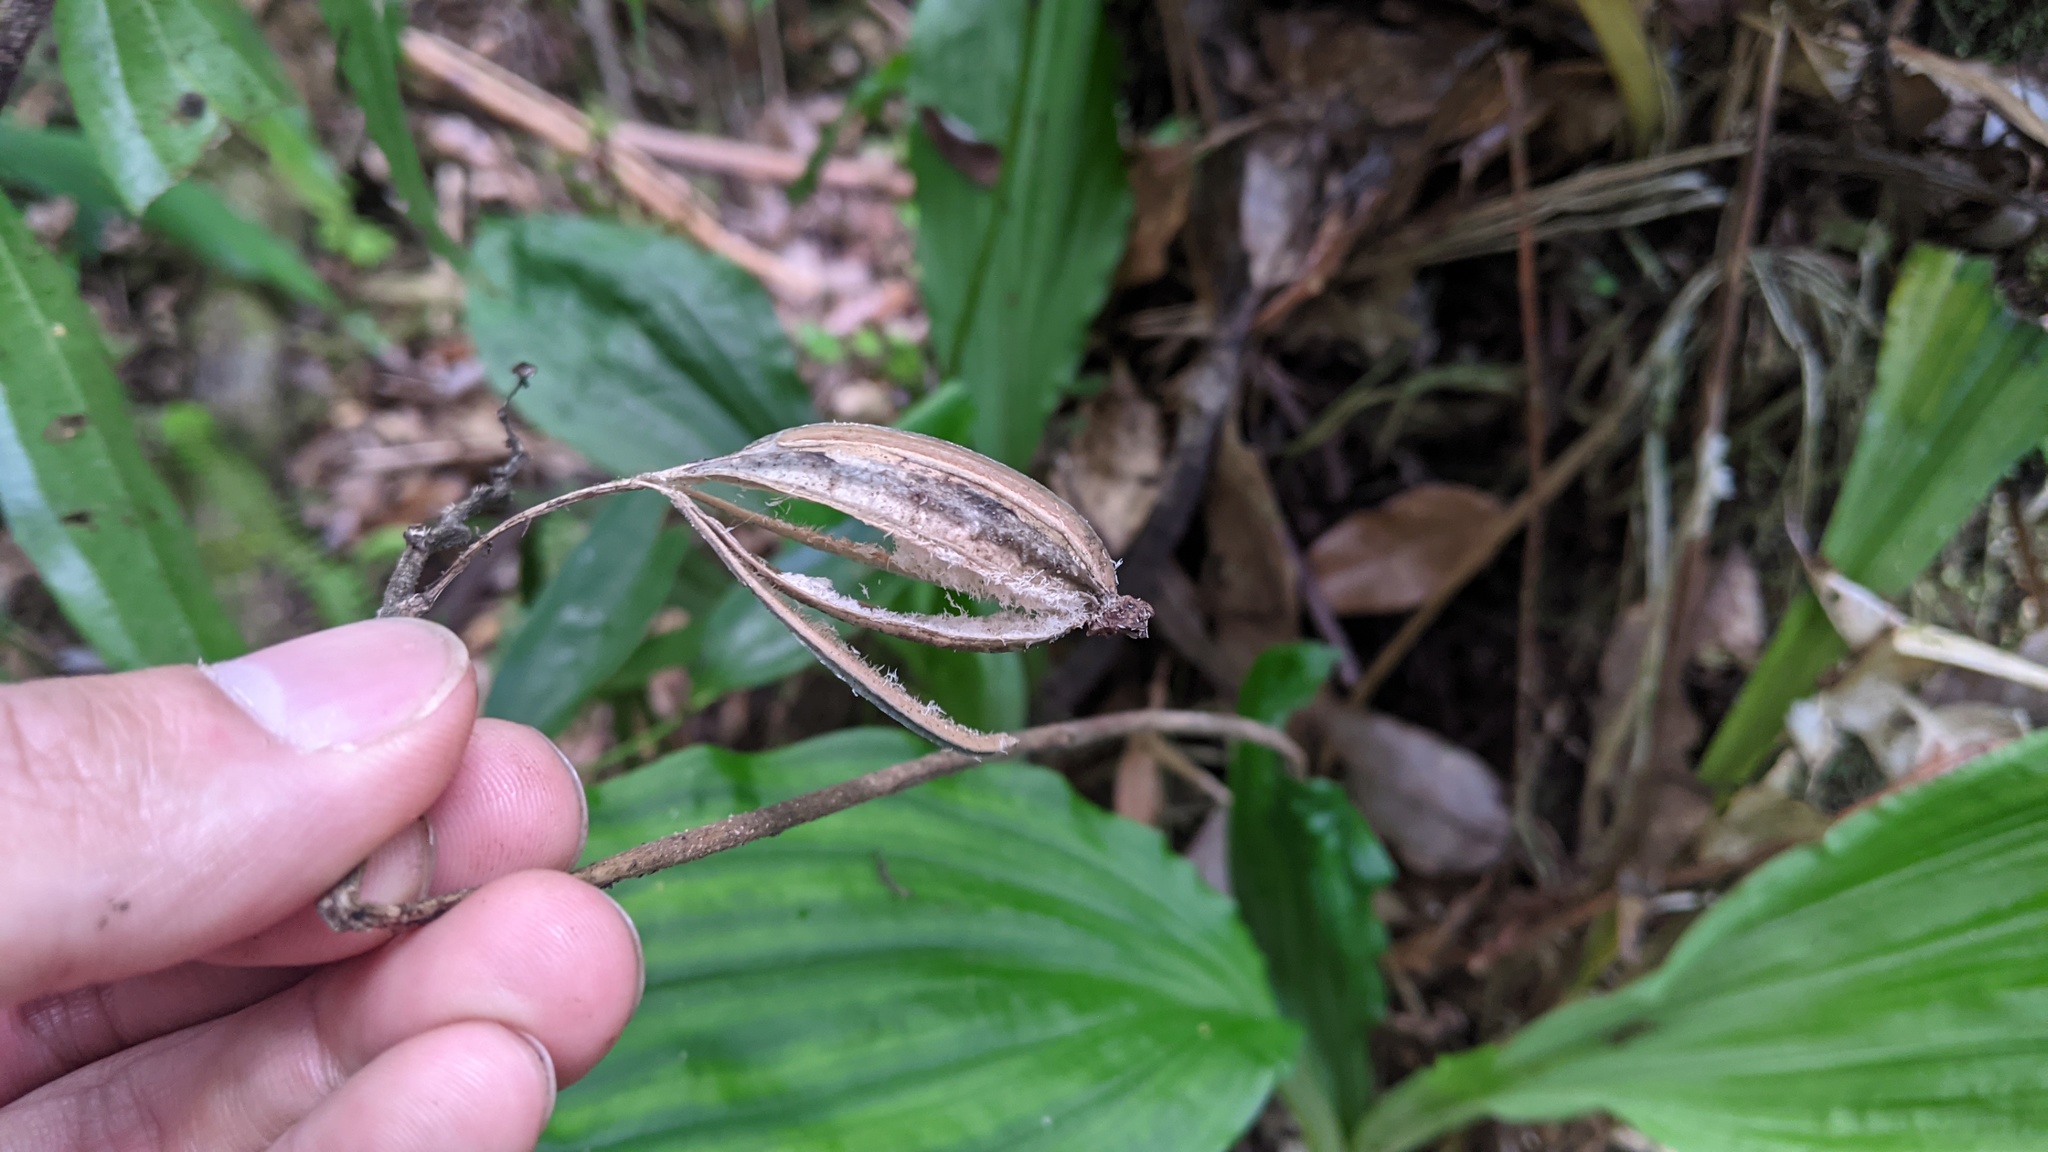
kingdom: Plantae
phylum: Tracheophyta
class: Liliopsida
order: Asparagales
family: Orchidaceae
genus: Calanthe
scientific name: Calanthe masuca
